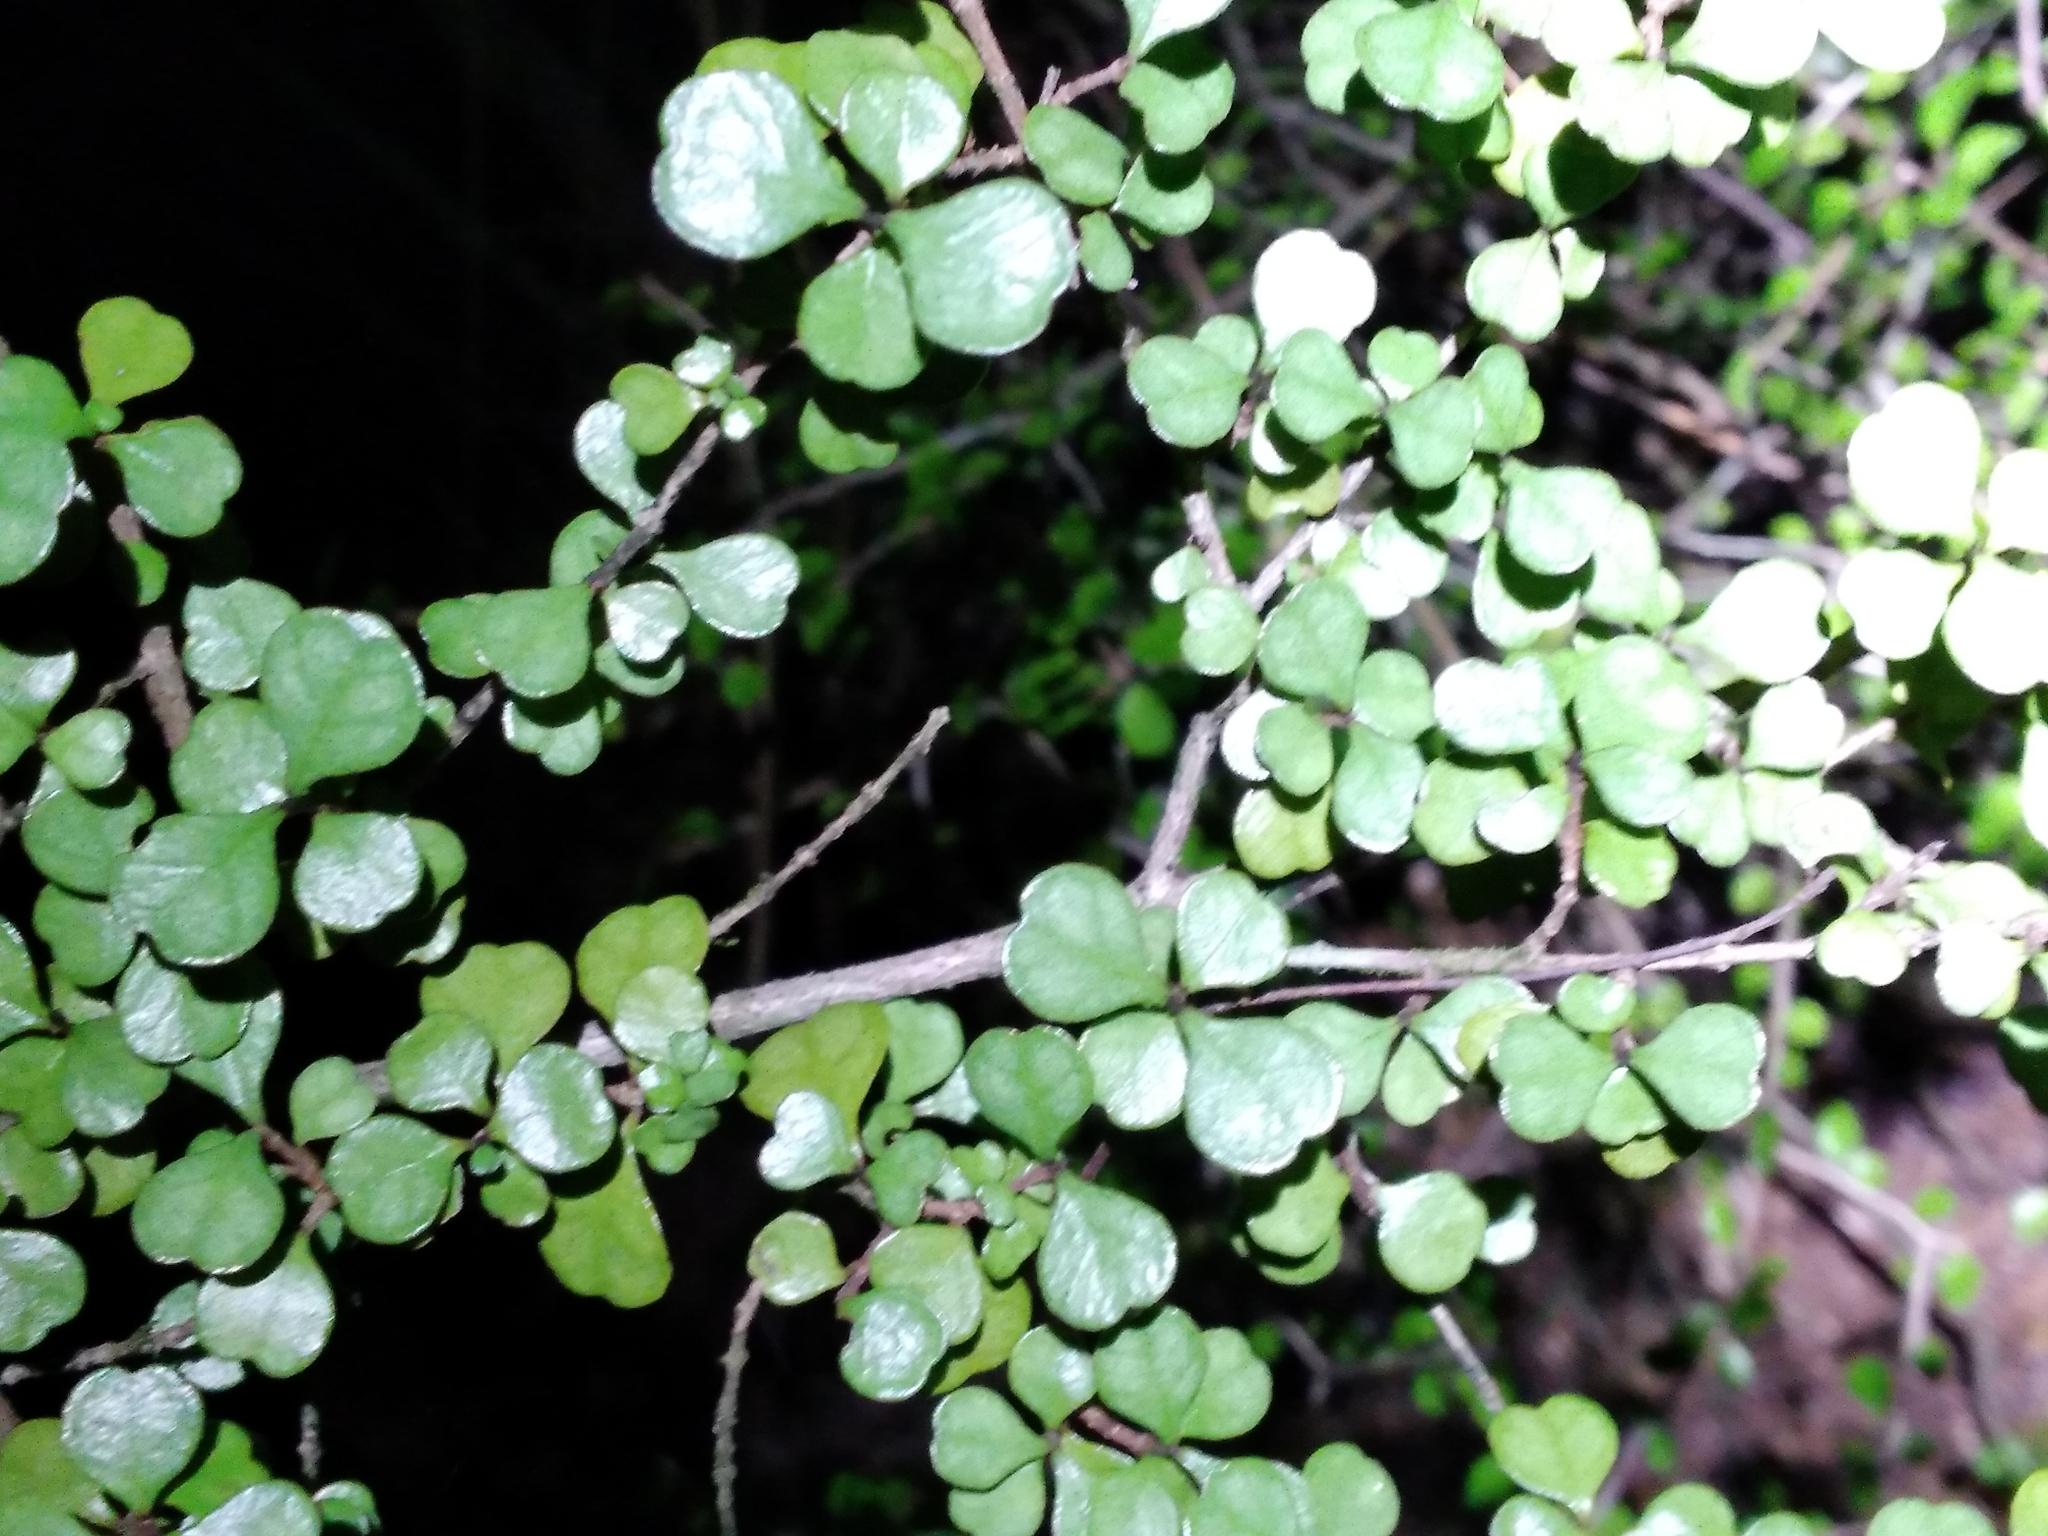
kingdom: Plantae
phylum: Tracheophyta
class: Magnoliopsida
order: Myrtales
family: Myrtaceae
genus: Lophomyrtus
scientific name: Lophomyrtus obcordata
